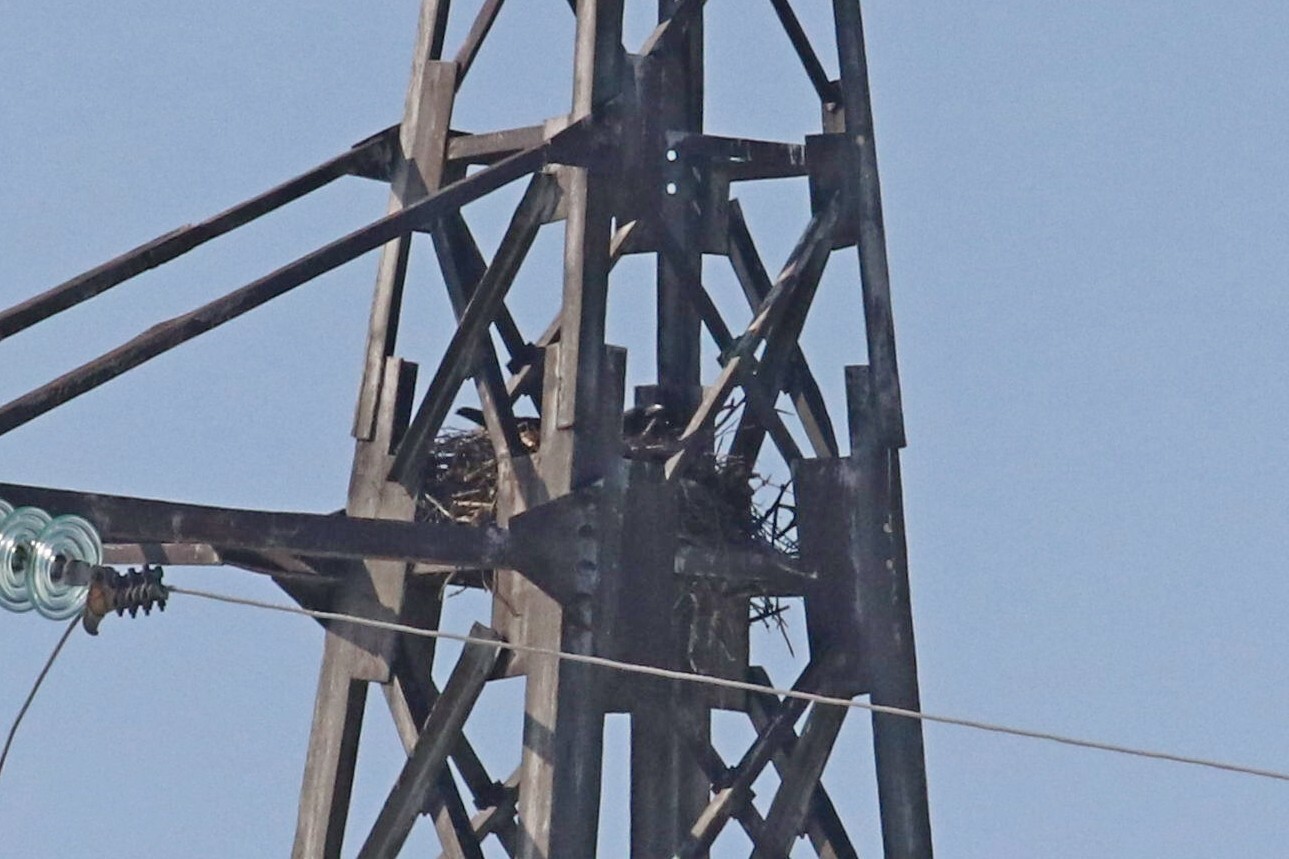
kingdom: Animalia
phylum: Chordata
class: Aves
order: Passeriformes
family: Corvidae
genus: Corvus
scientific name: Corvus corax
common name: Common raven
